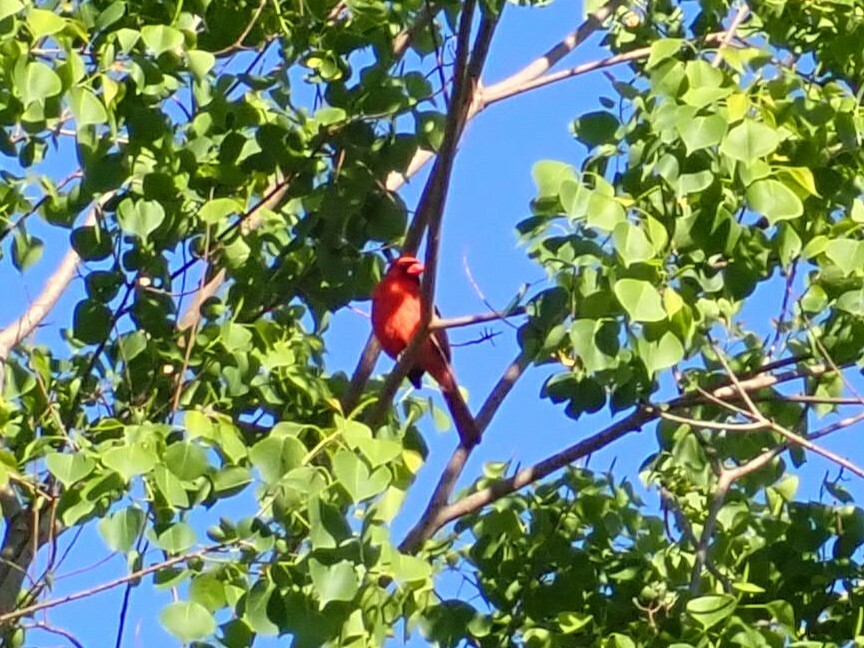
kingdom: Animalia
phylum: Chordata
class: Aves
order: Passeriformes
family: Cardinalidae
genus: Cardinalis
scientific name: Cardinalis cardinalis
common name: Northern cardinal
